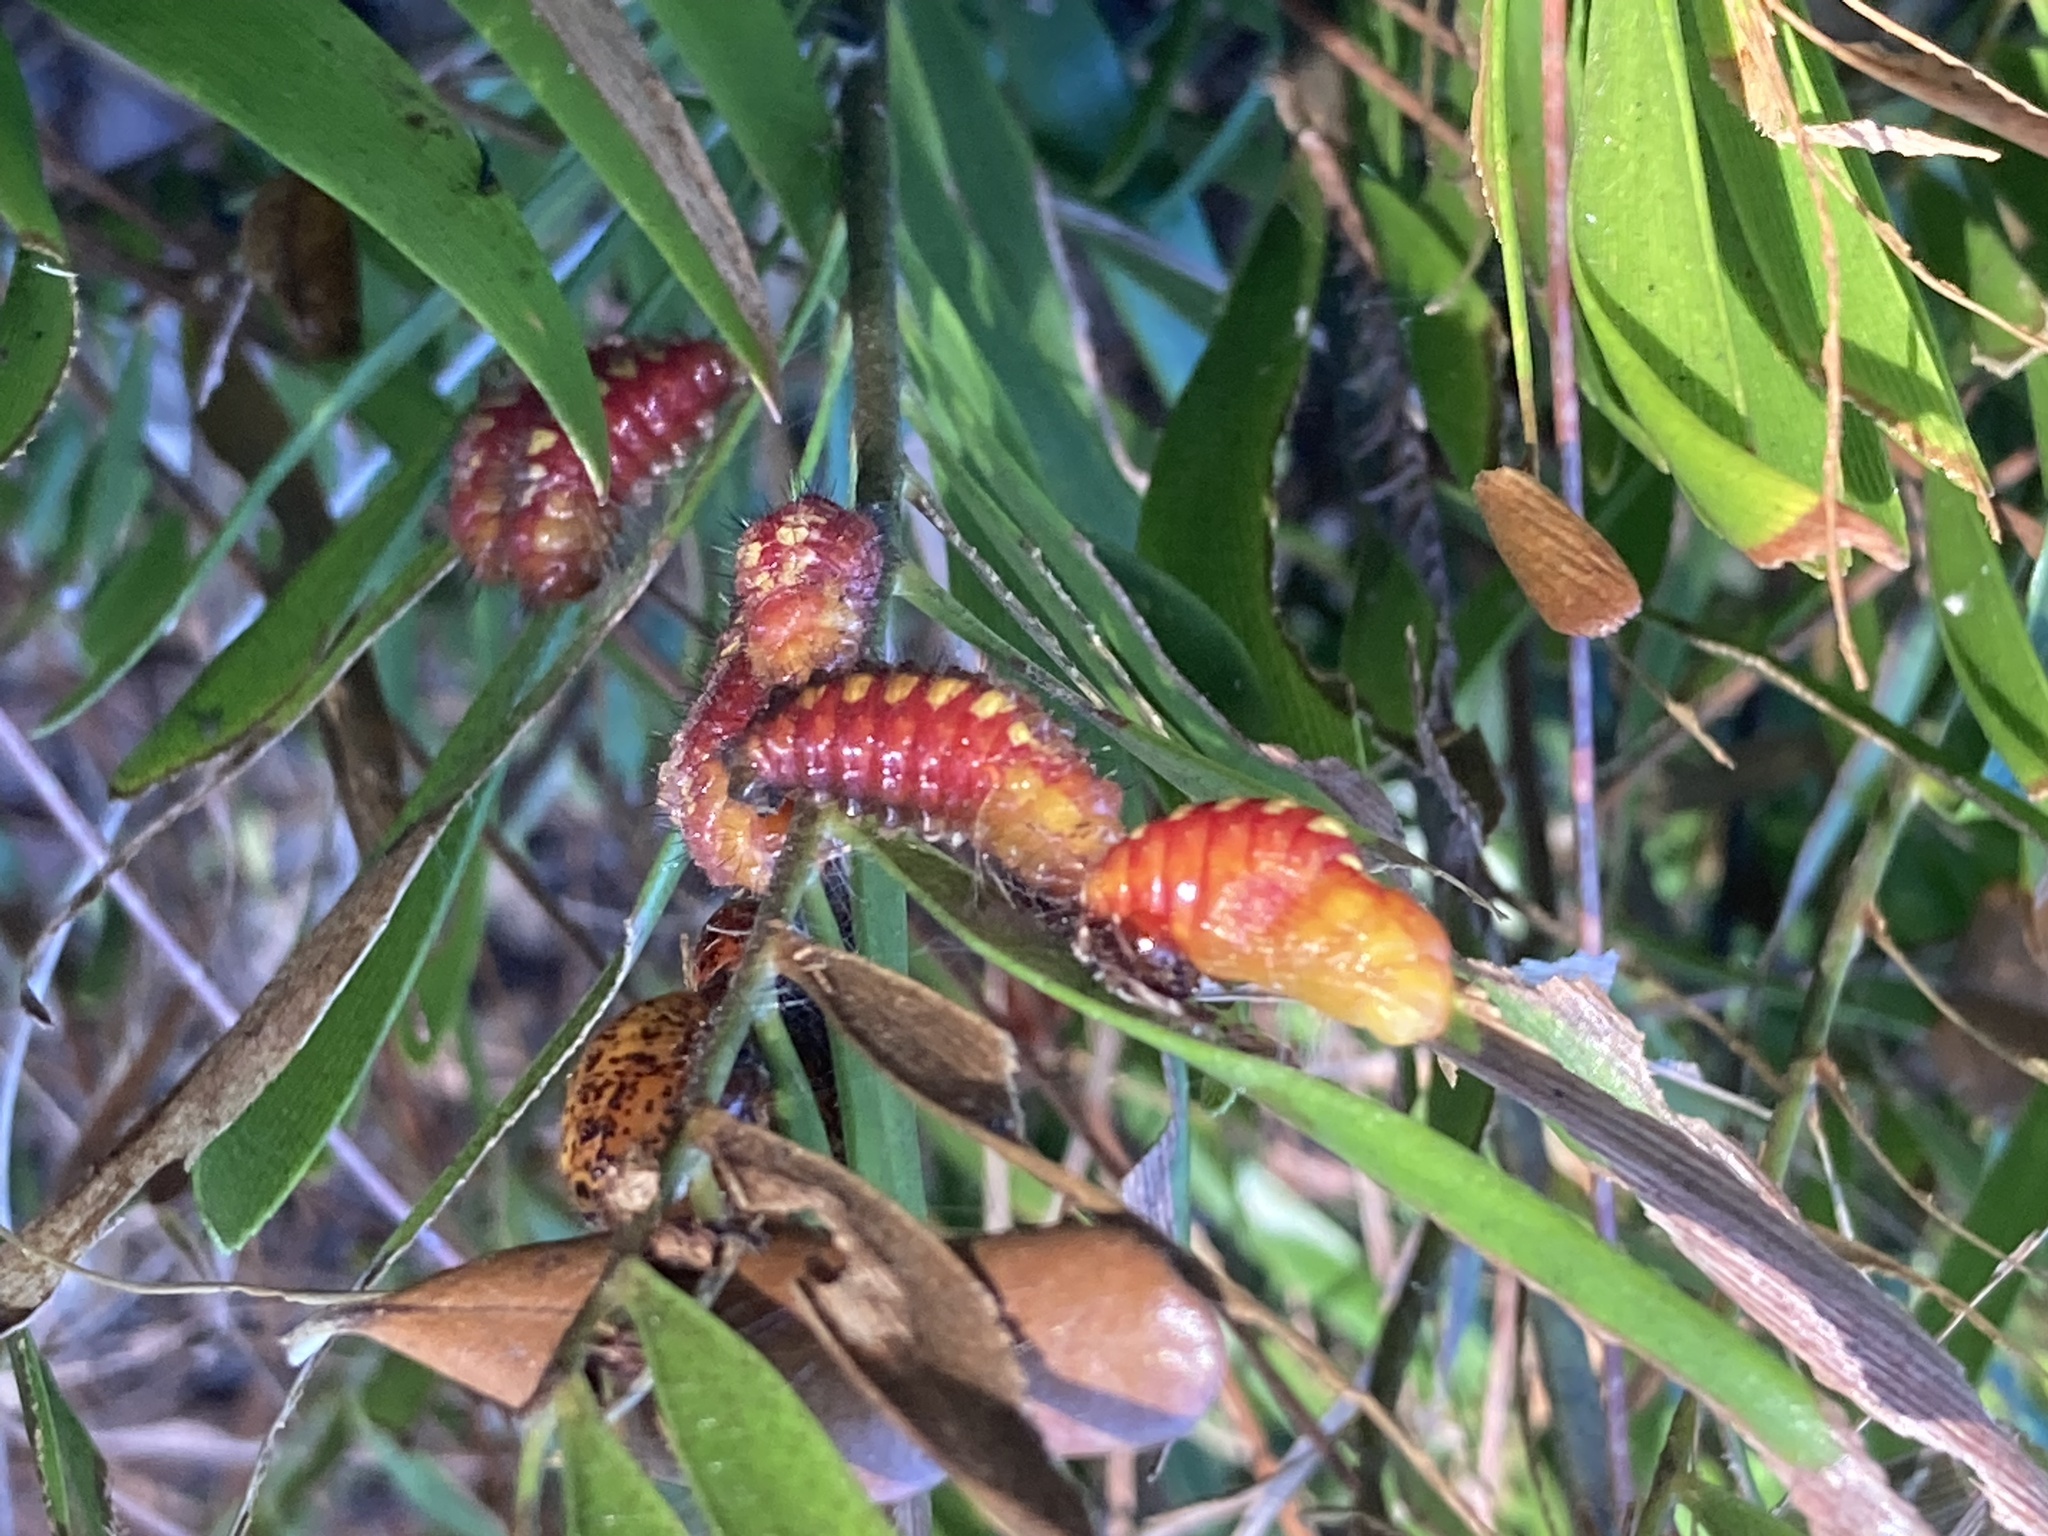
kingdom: Animalia
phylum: Arthropoda
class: Insecta
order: Lepidoptera
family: Lycaenidae
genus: Eumaeus
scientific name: Eumaeus atala
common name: Atala
